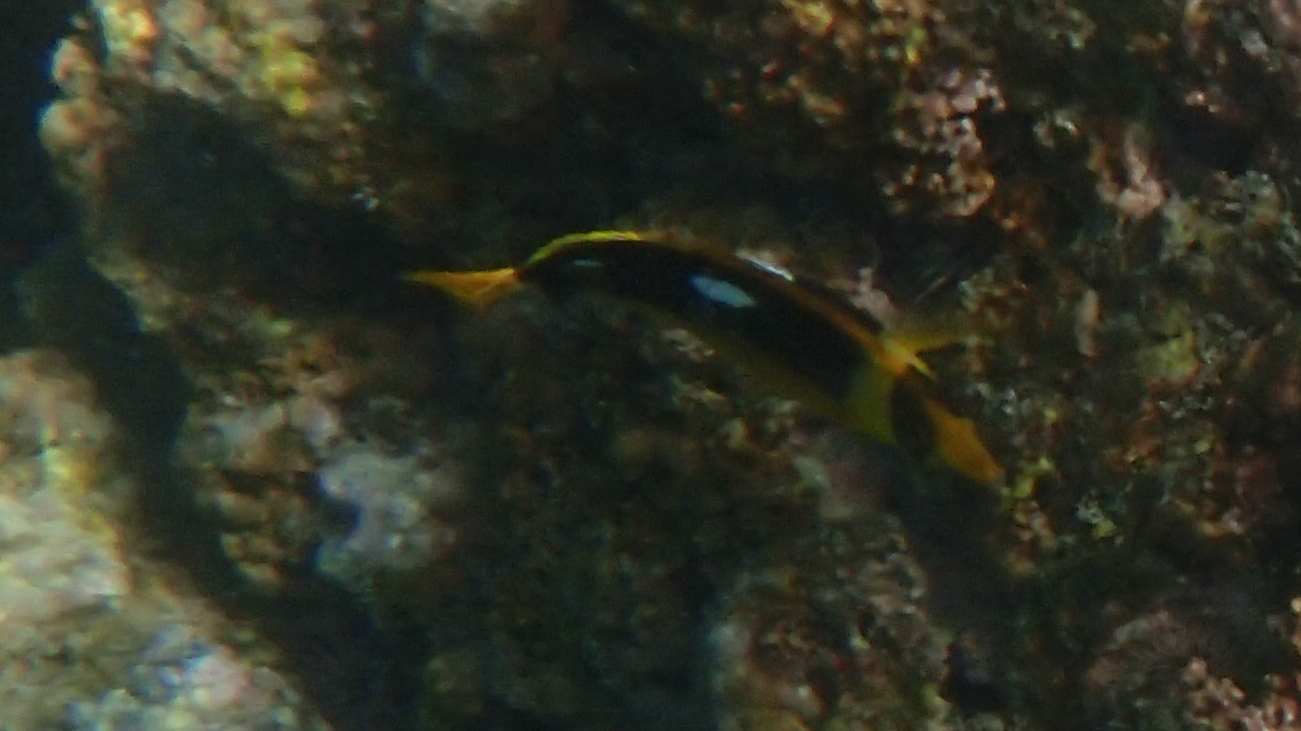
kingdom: Animalia
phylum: Chordata
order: Perciformes
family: Chaetodontidae
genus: Chaetodon
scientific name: Chaetodon quadrimaculatus
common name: Fourspot butterflyfish
